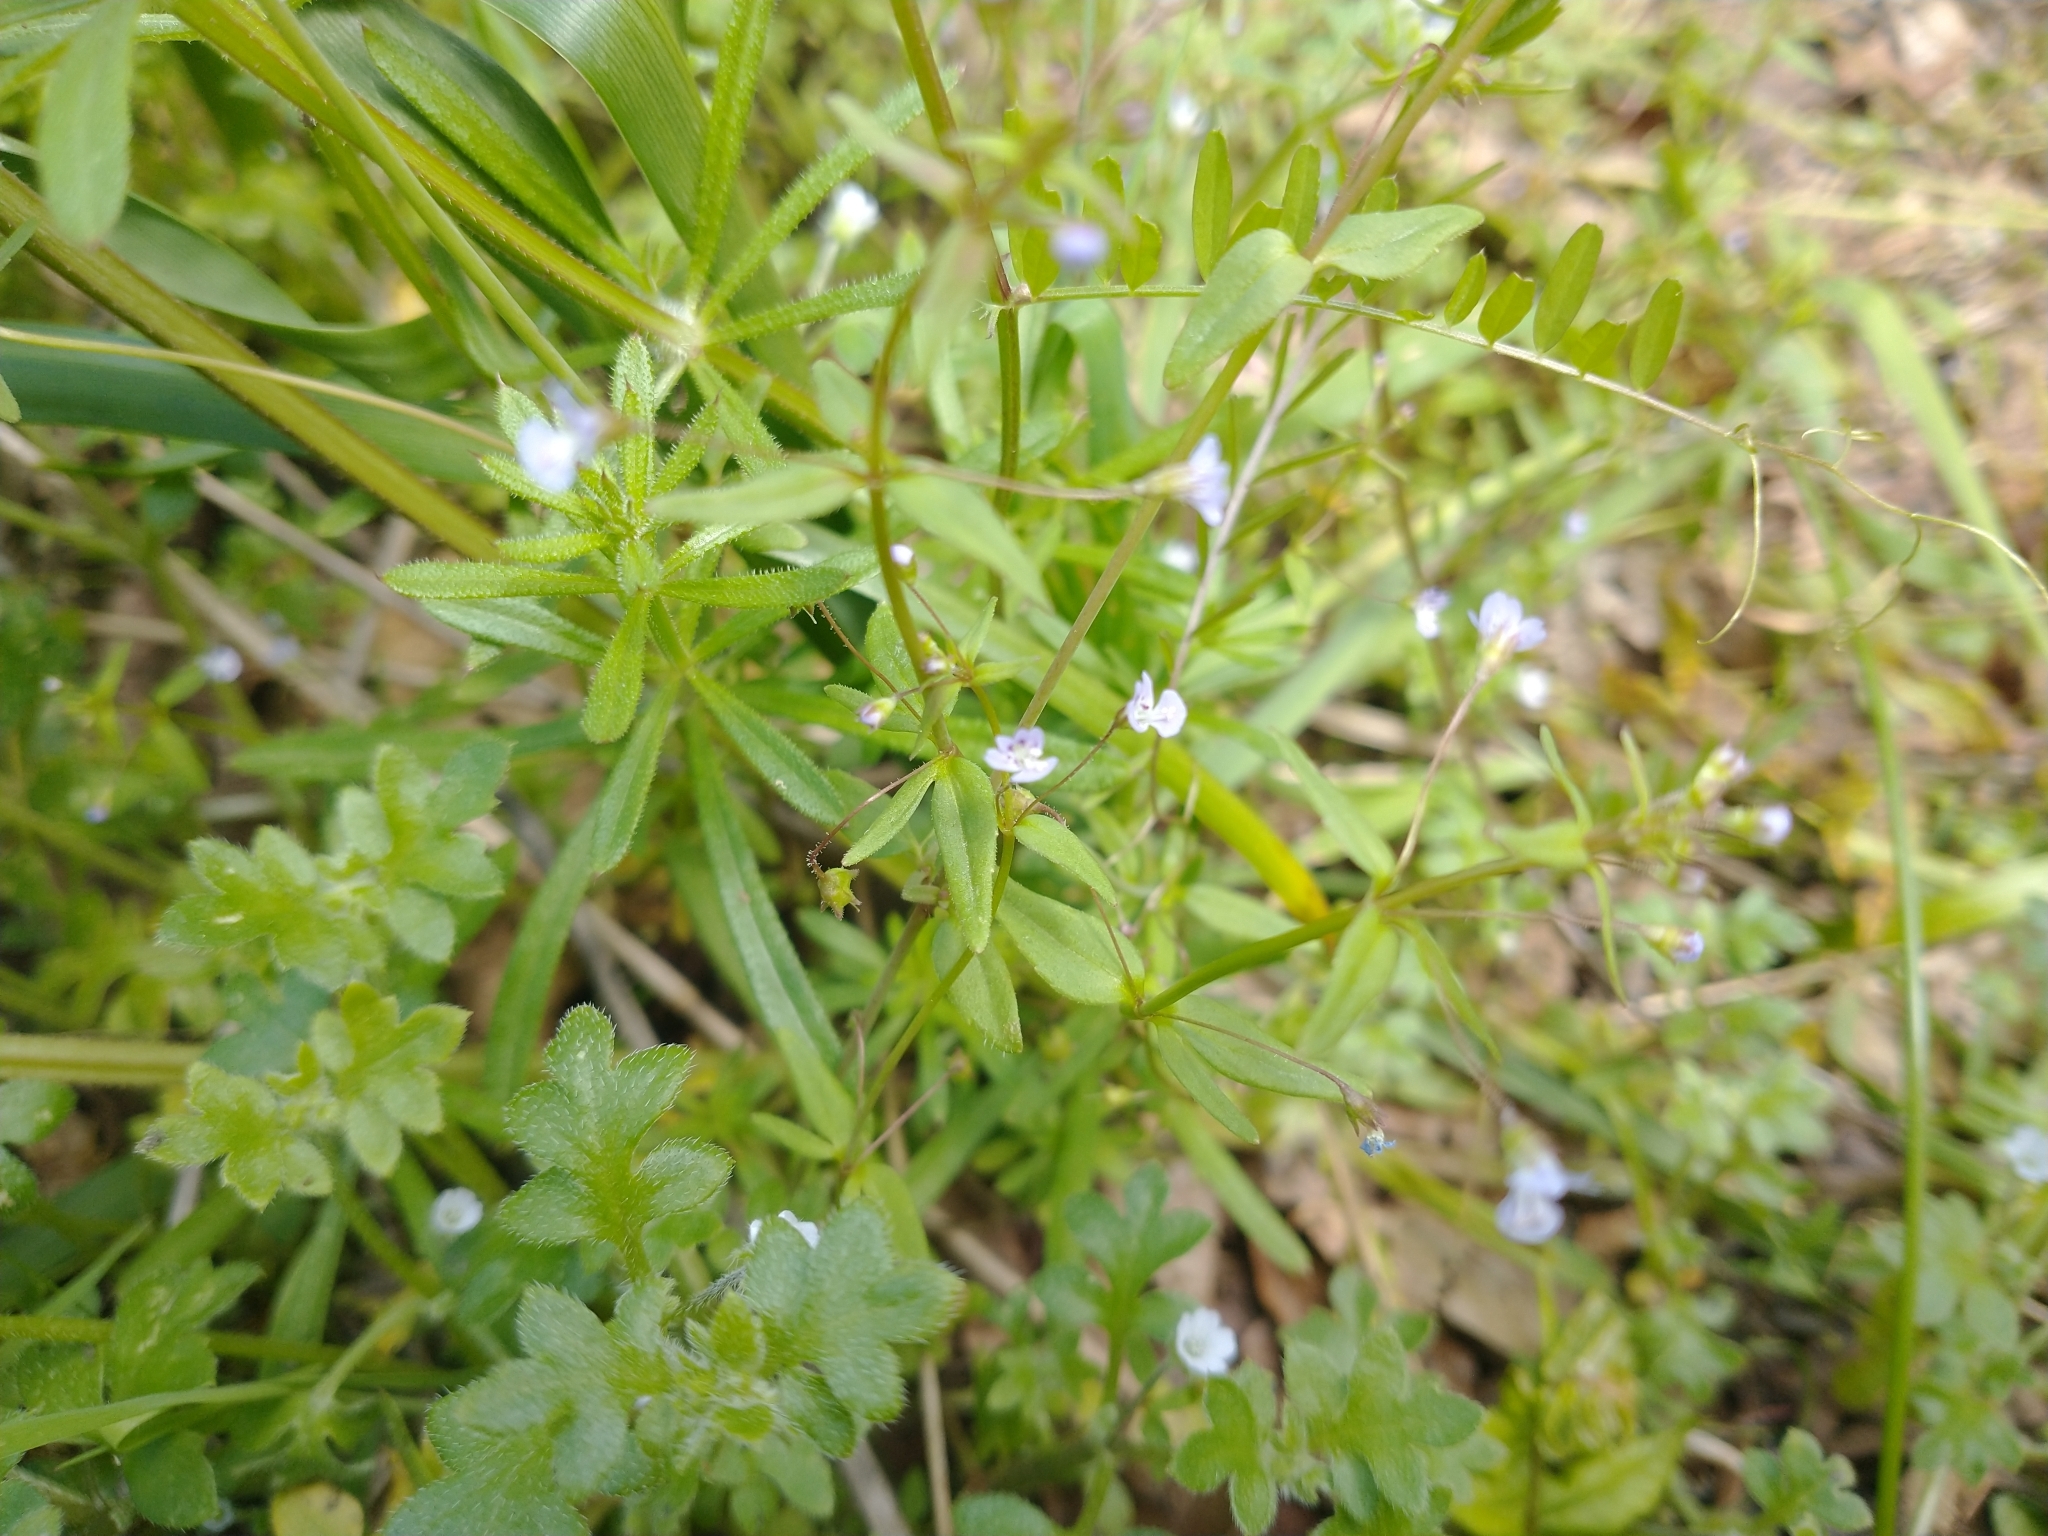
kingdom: Plantae
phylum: Tracheophyta
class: Magnoliopsida
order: Lamiales
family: Plantaginaceae
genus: Tonella
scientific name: Tonella tenella
